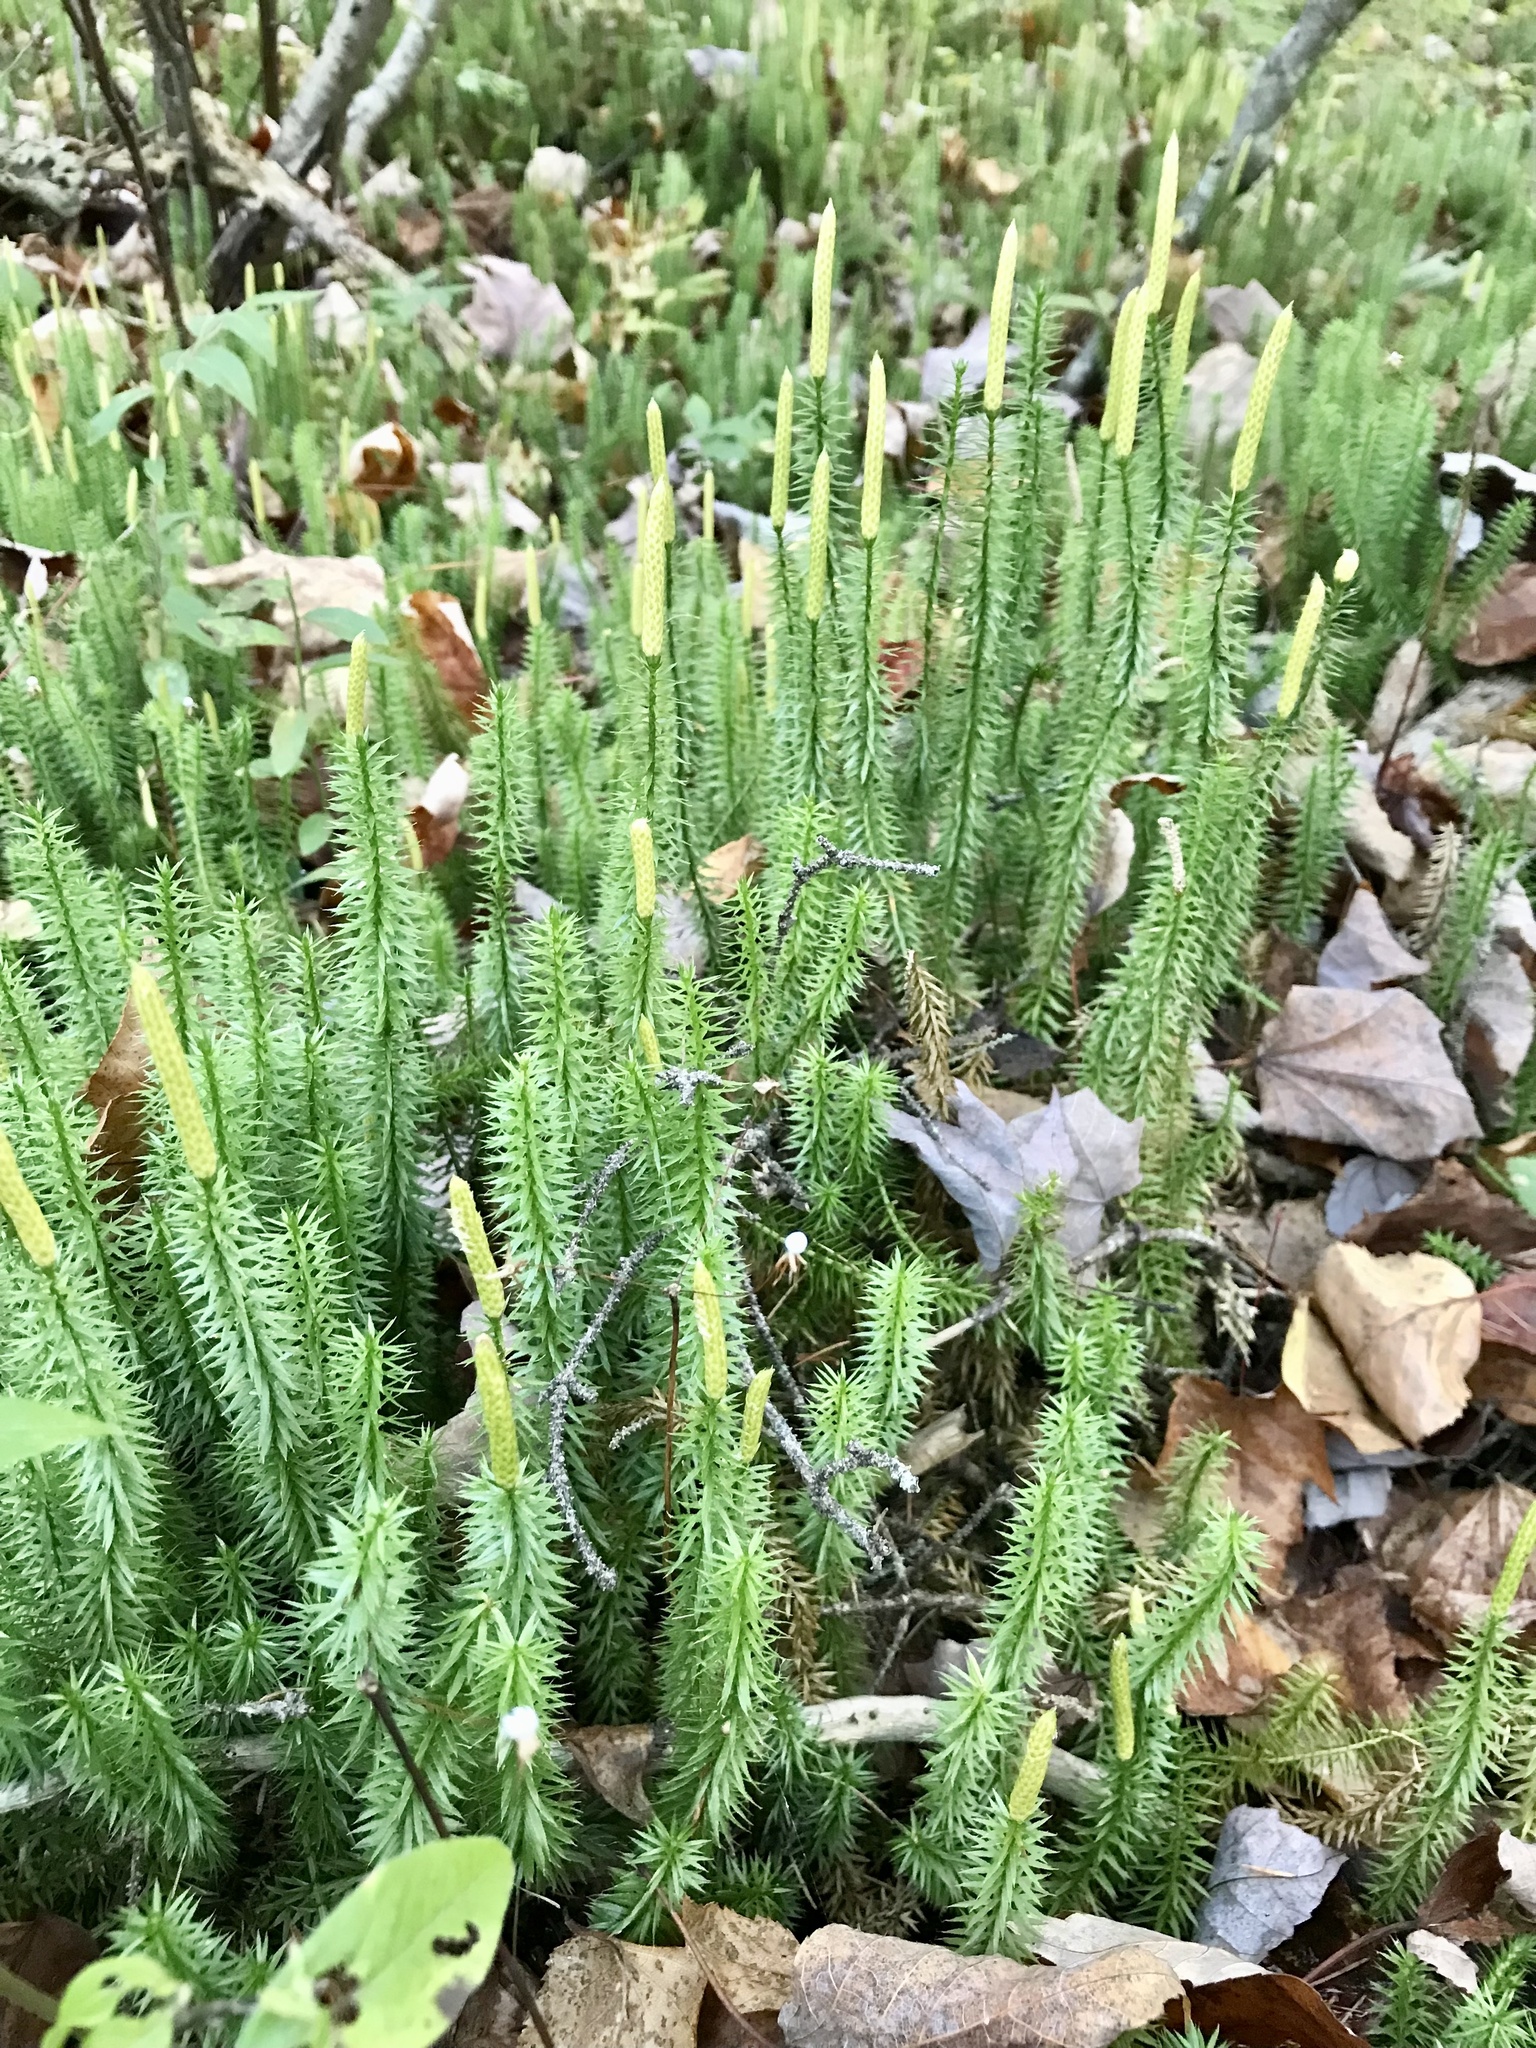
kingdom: Plantae
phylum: Tracheophyta
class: Lycopodiopsida
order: Lycopodiales
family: Lycopodiaceae
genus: Spinulum
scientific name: Spinulum annotinum
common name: Interrupted club-moss
